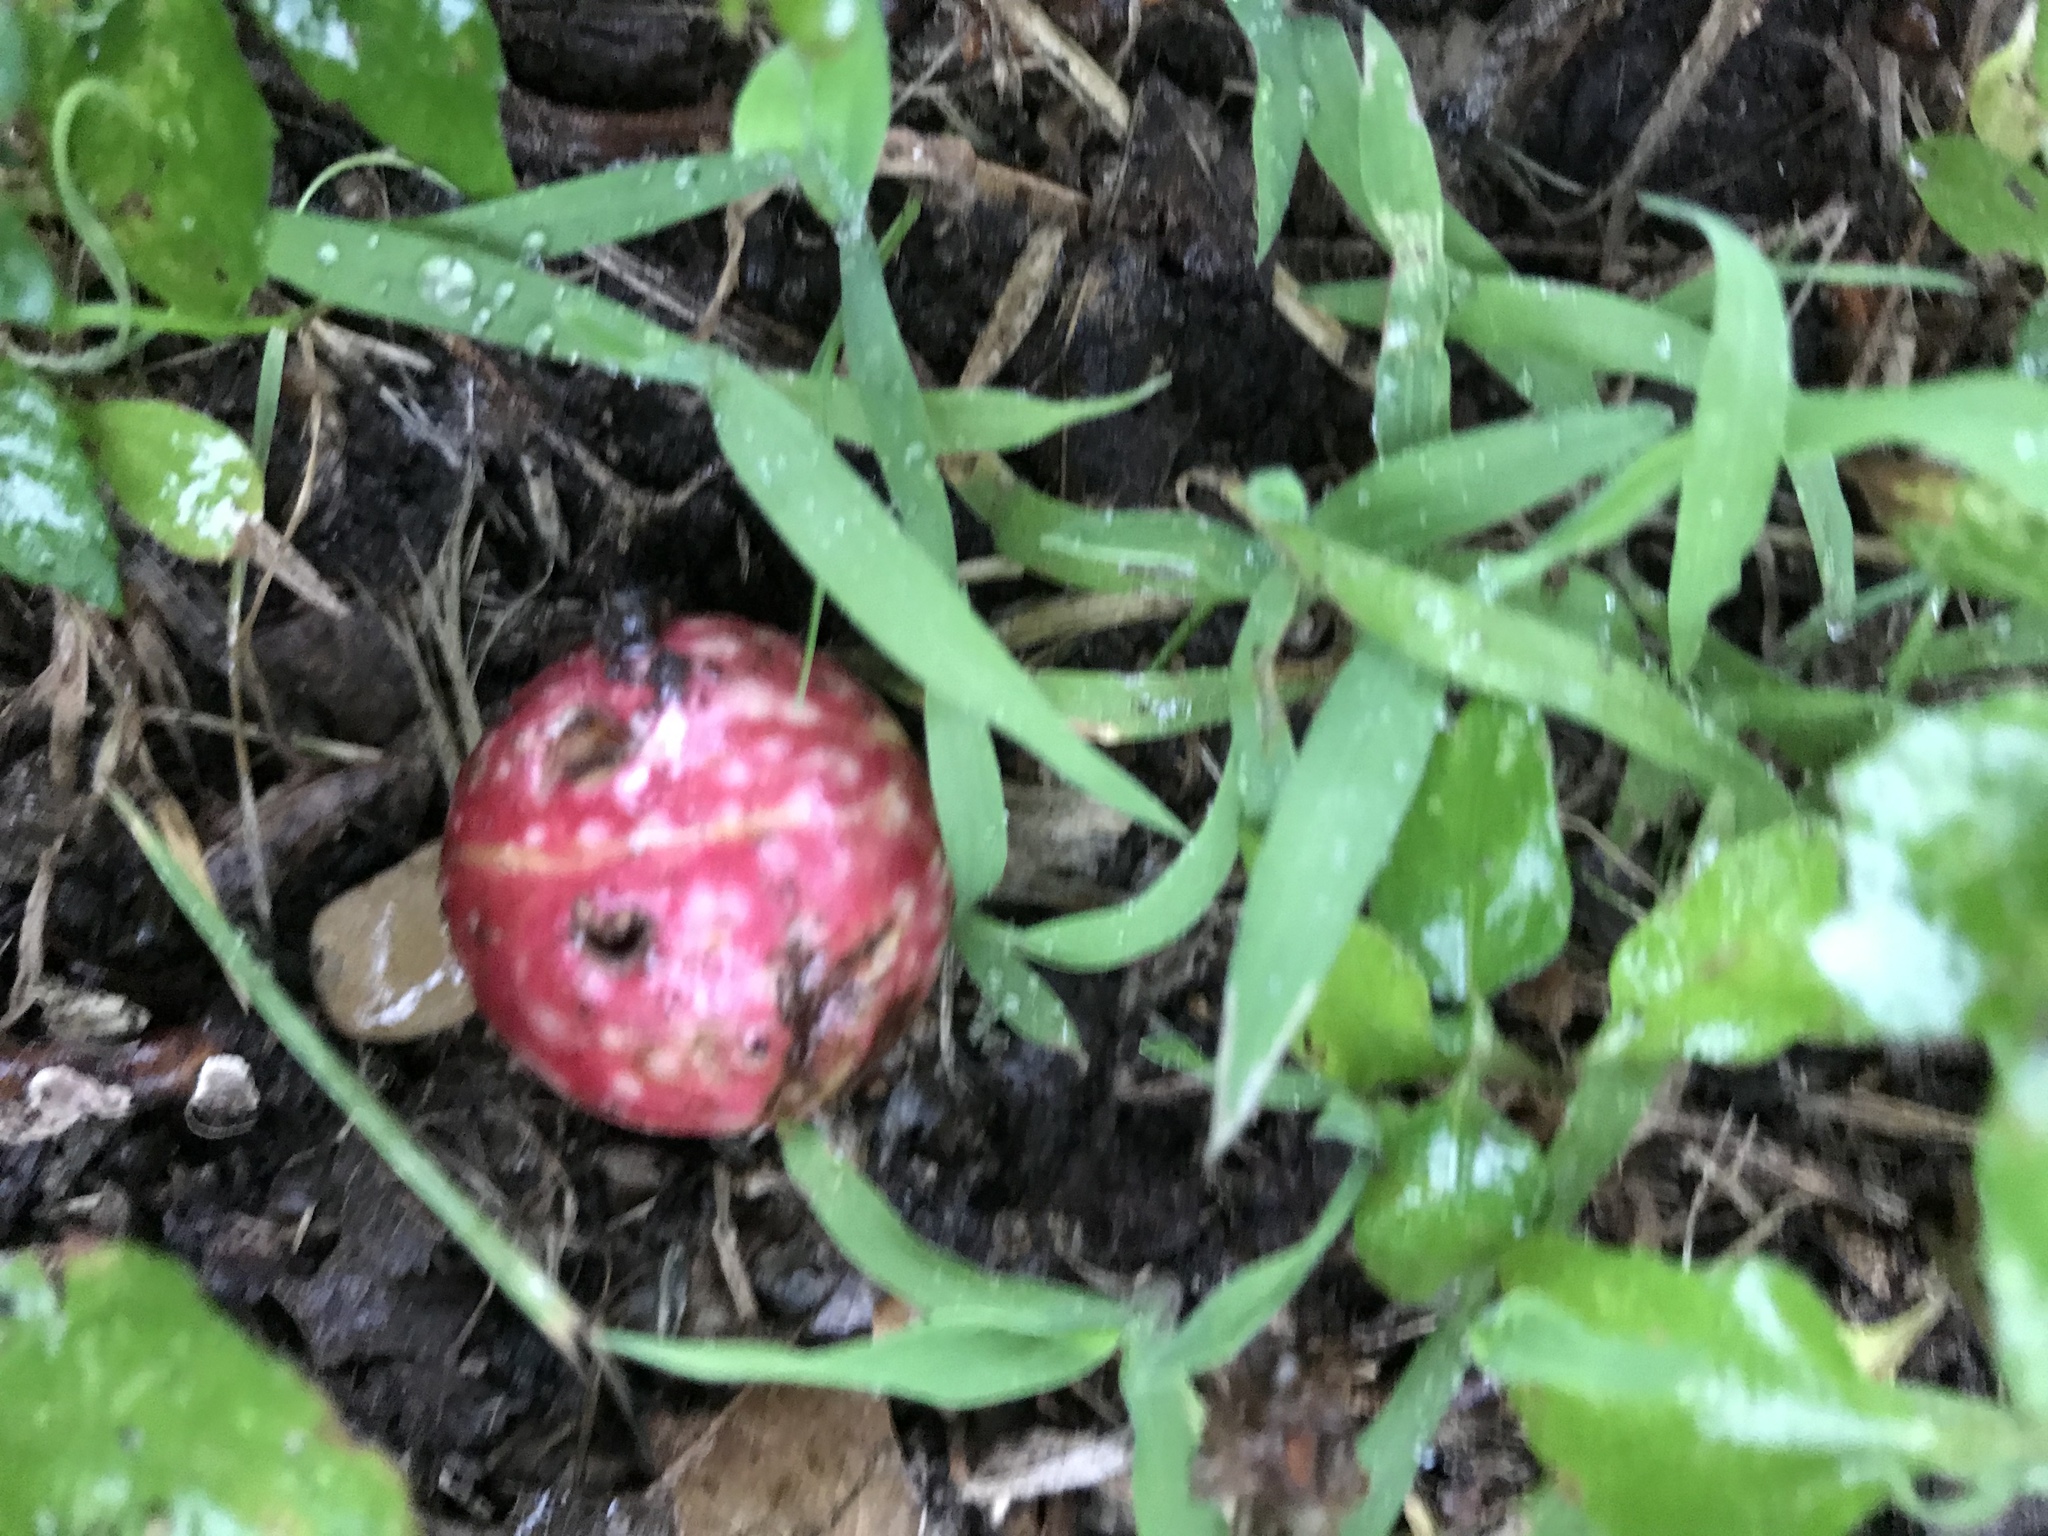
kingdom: Animalia
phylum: Arthropoda
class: Insecta
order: Hymenoptera
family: Cynipidae
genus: Amphibolips
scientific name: Amphibolips
